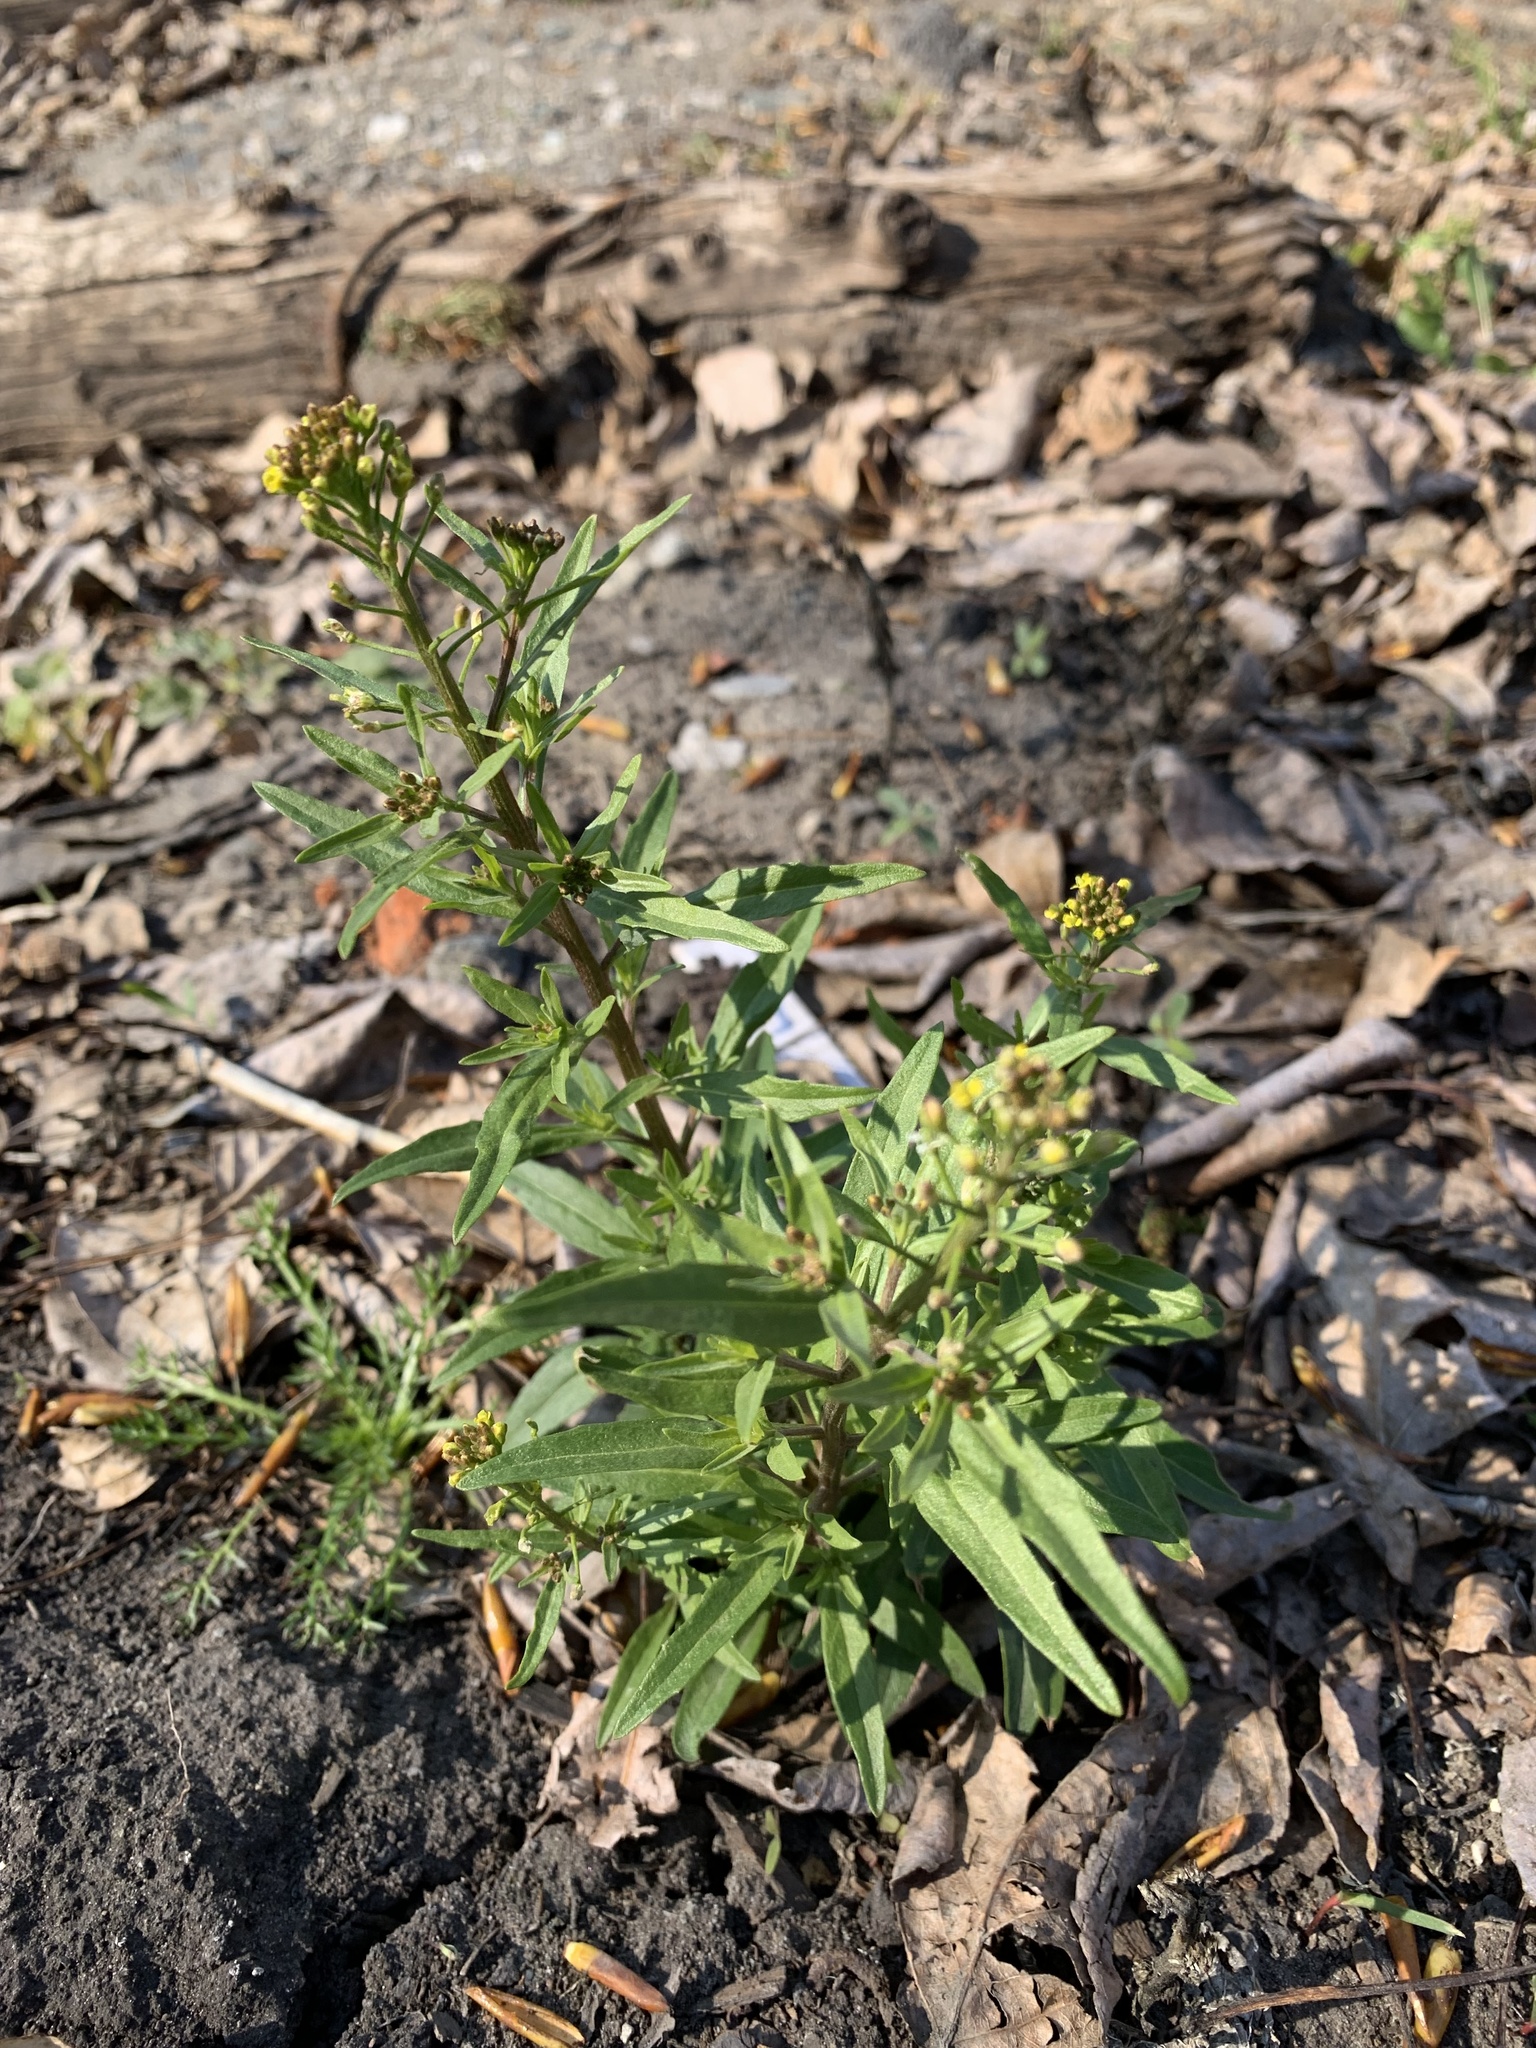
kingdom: Plantae
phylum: Tracheophyta
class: Magnoliopsida
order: Brassicales
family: Brassicaceae
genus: Erysimum
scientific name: Erysimum cheiranthoides
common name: Treacle mustard
